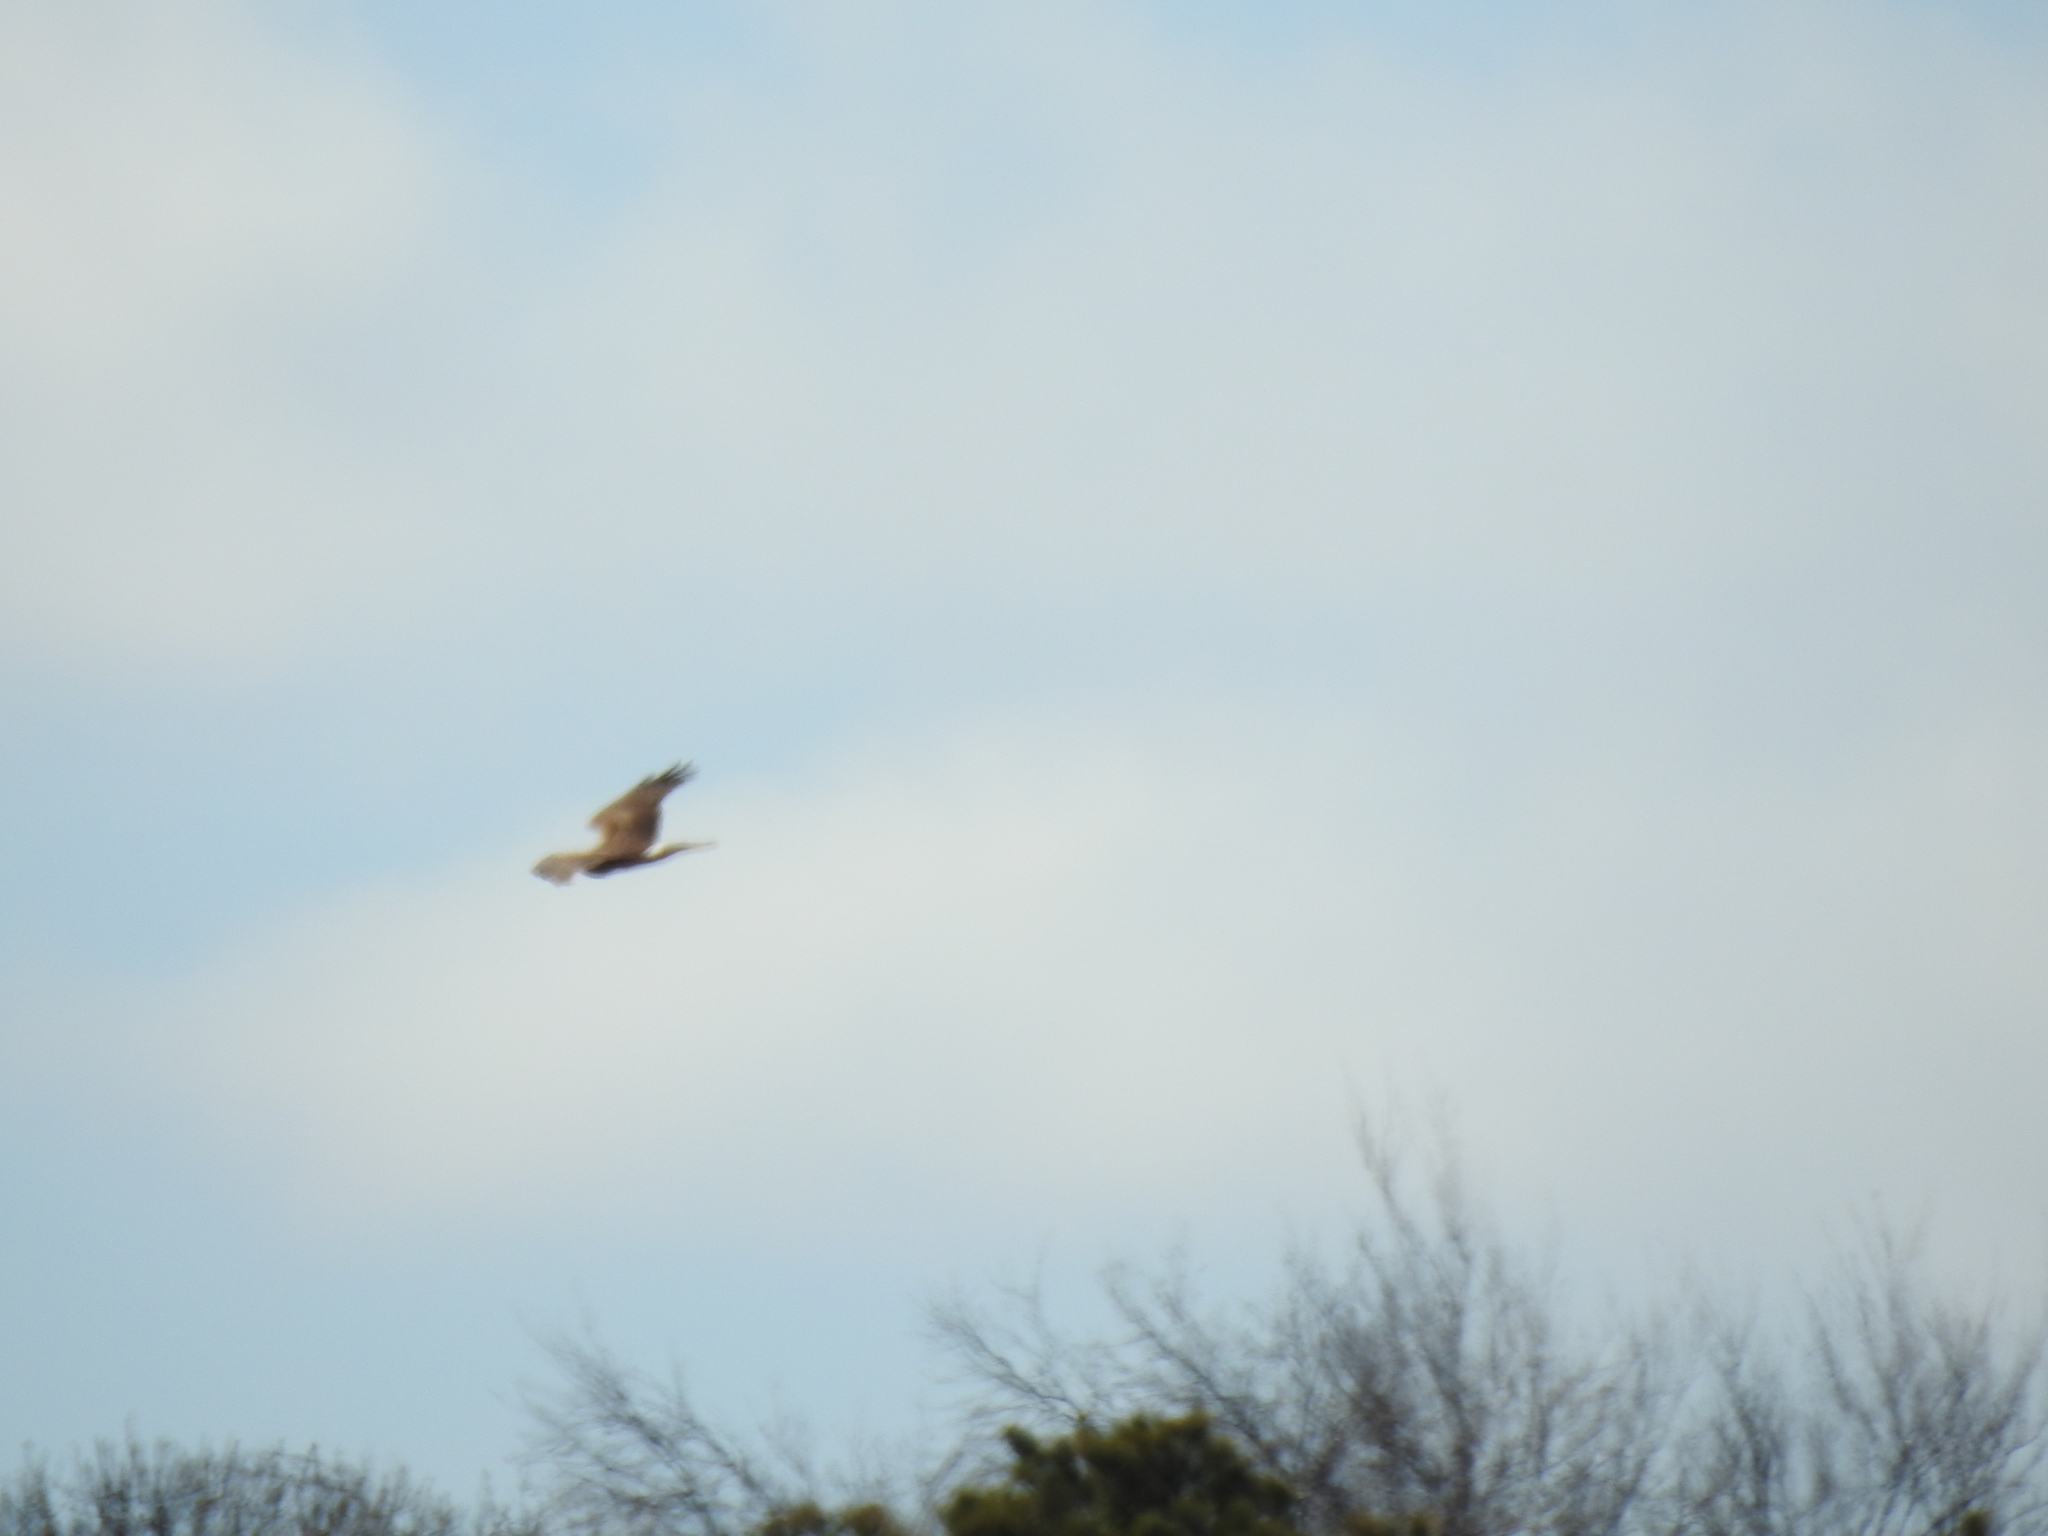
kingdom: Animalia
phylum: Chordata
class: Aves
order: Accipitriformes
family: Accipitridae
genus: Circus
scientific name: Circus cyaneus
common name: Hen harrier
